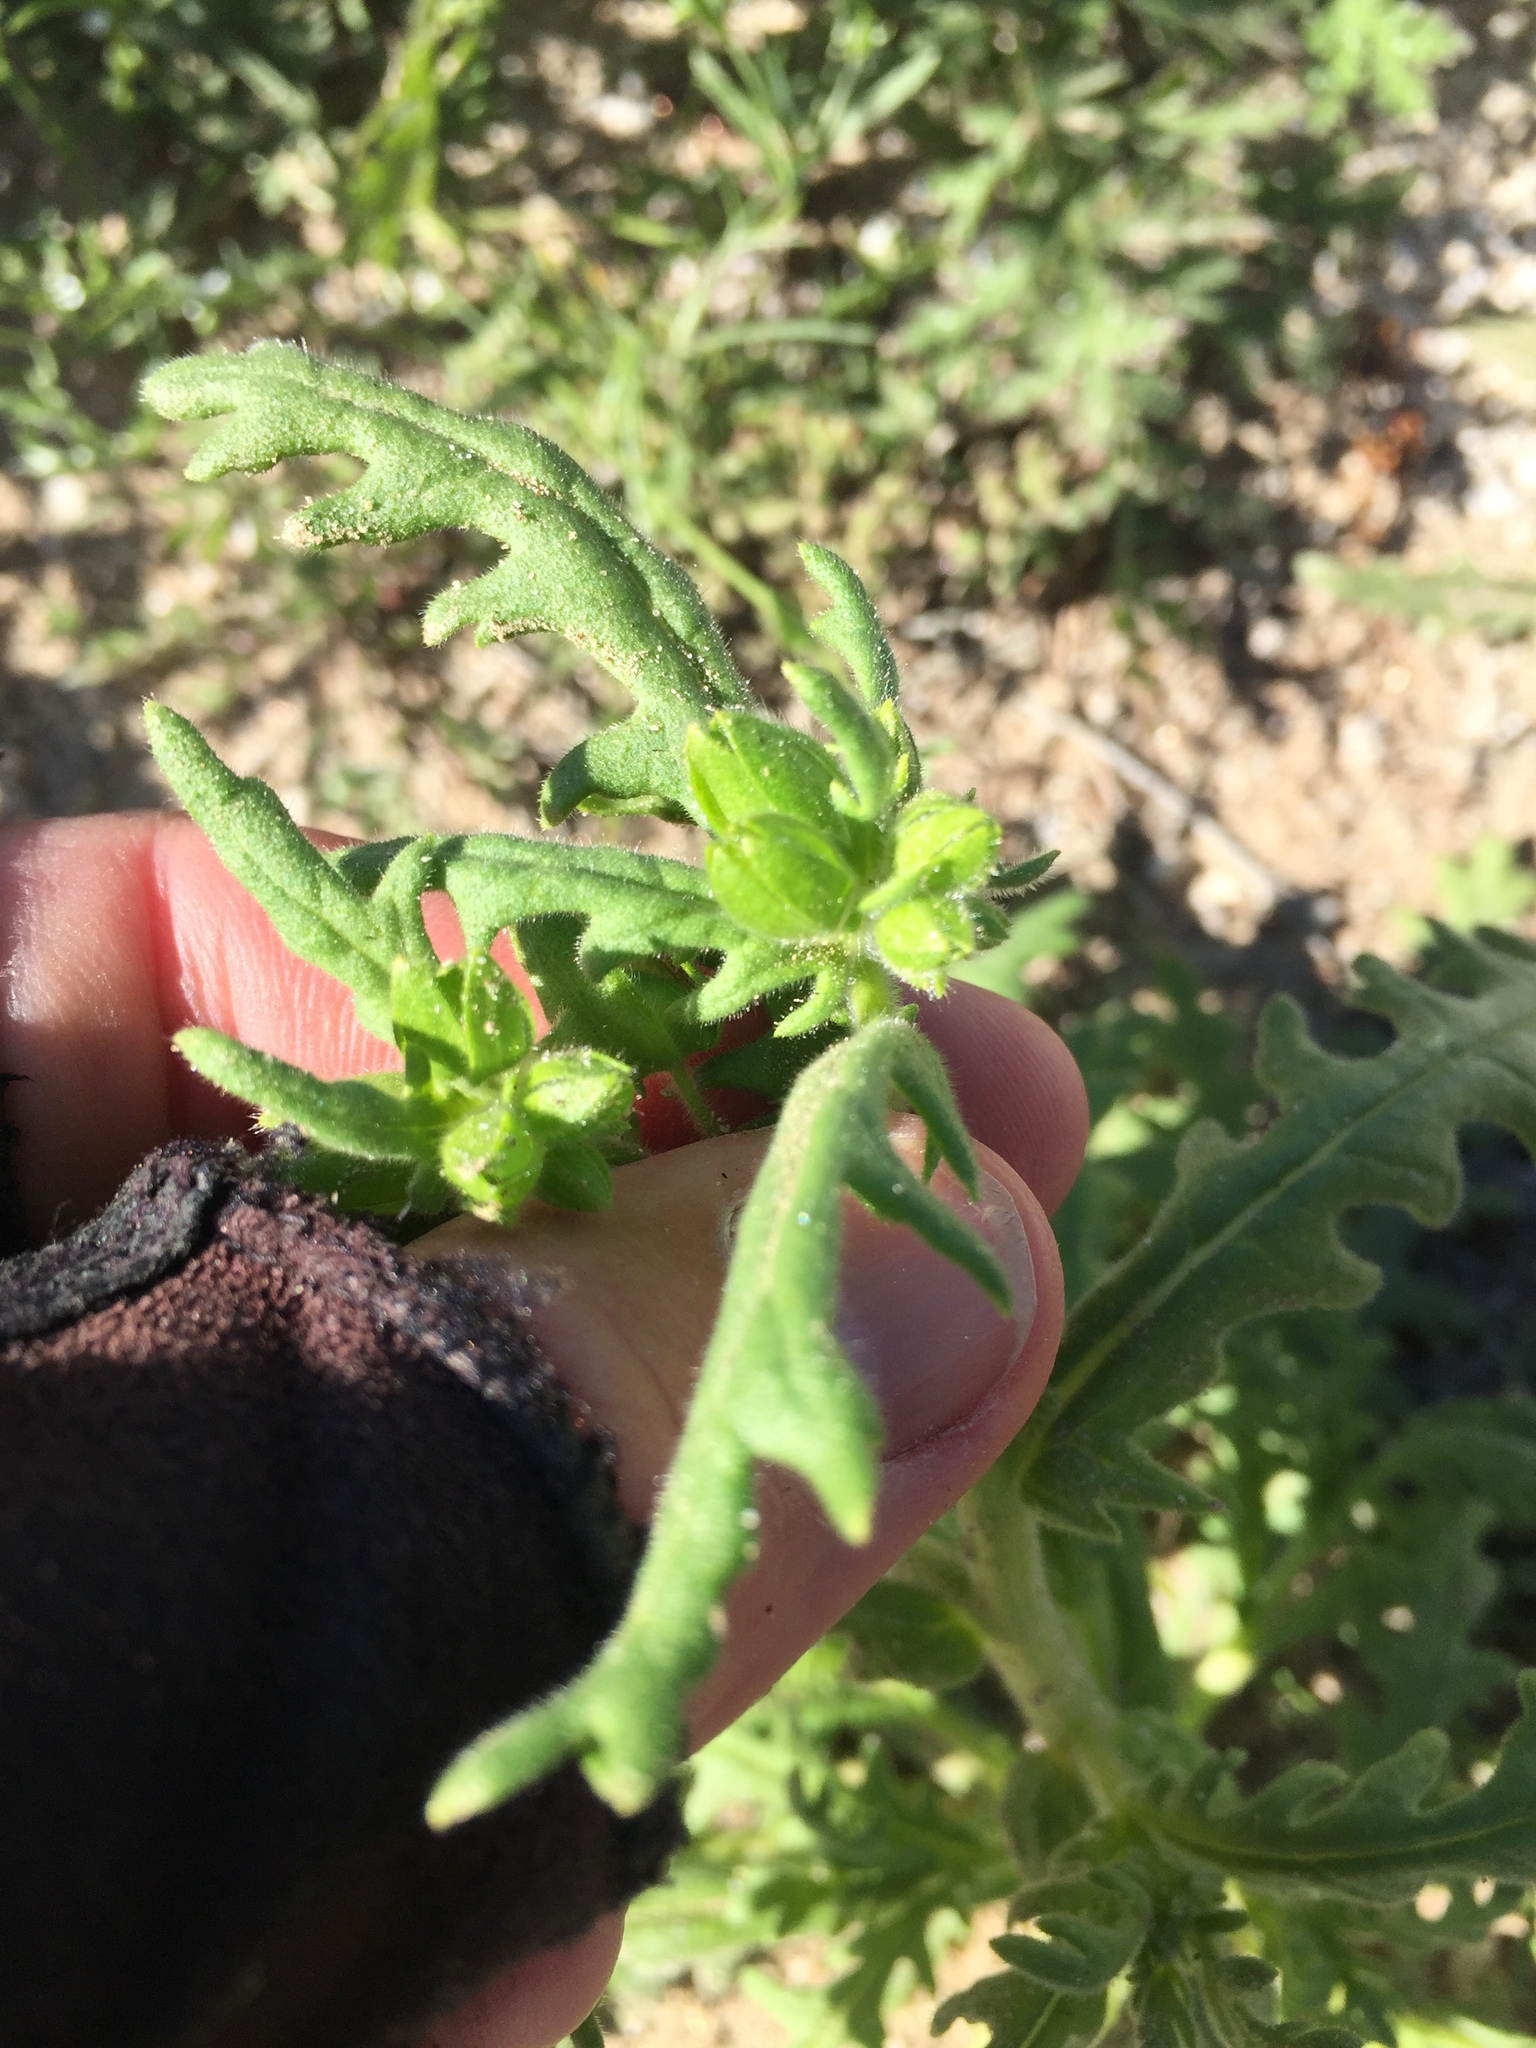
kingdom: Plantae
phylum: Tracheophyta
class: Magnoliopsida
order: Boraginales
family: Hydrophyllaceae
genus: Emmenanthe
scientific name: Emmenanthe penduliflora
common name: Whispering-bells
